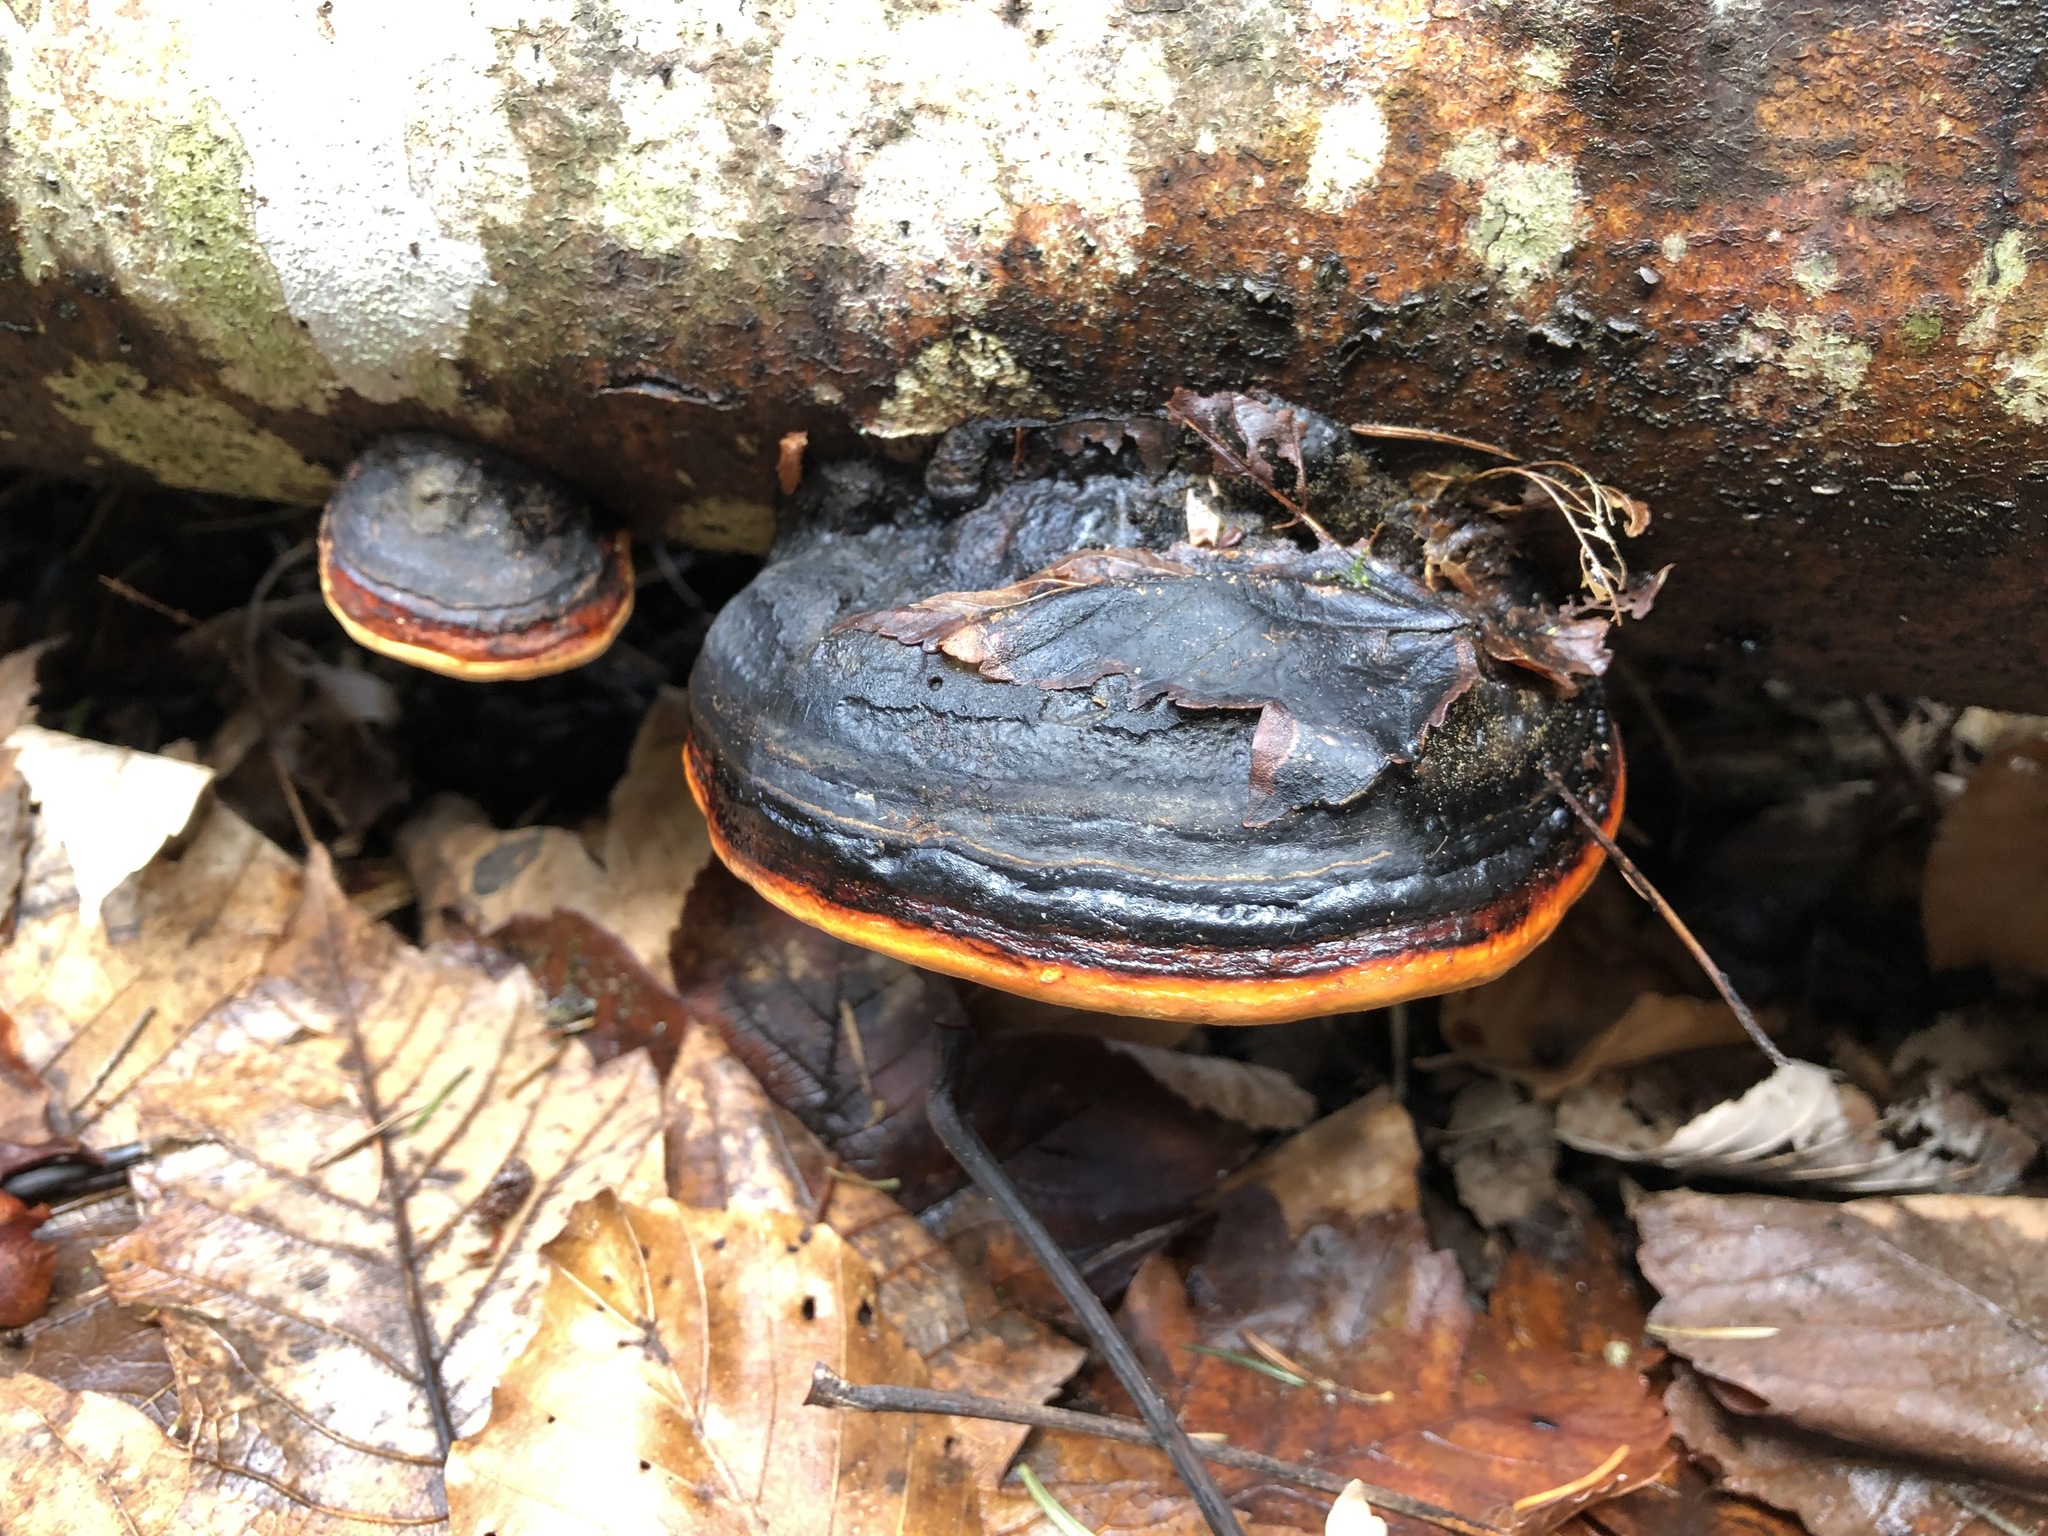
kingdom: Fungi
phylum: Basidiomycota
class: Agaricomycetes
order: Polyporales
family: Fomitopsidaceae
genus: Fomitopsis
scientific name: Fomitopsis pinicola
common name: Red-belted bracket
